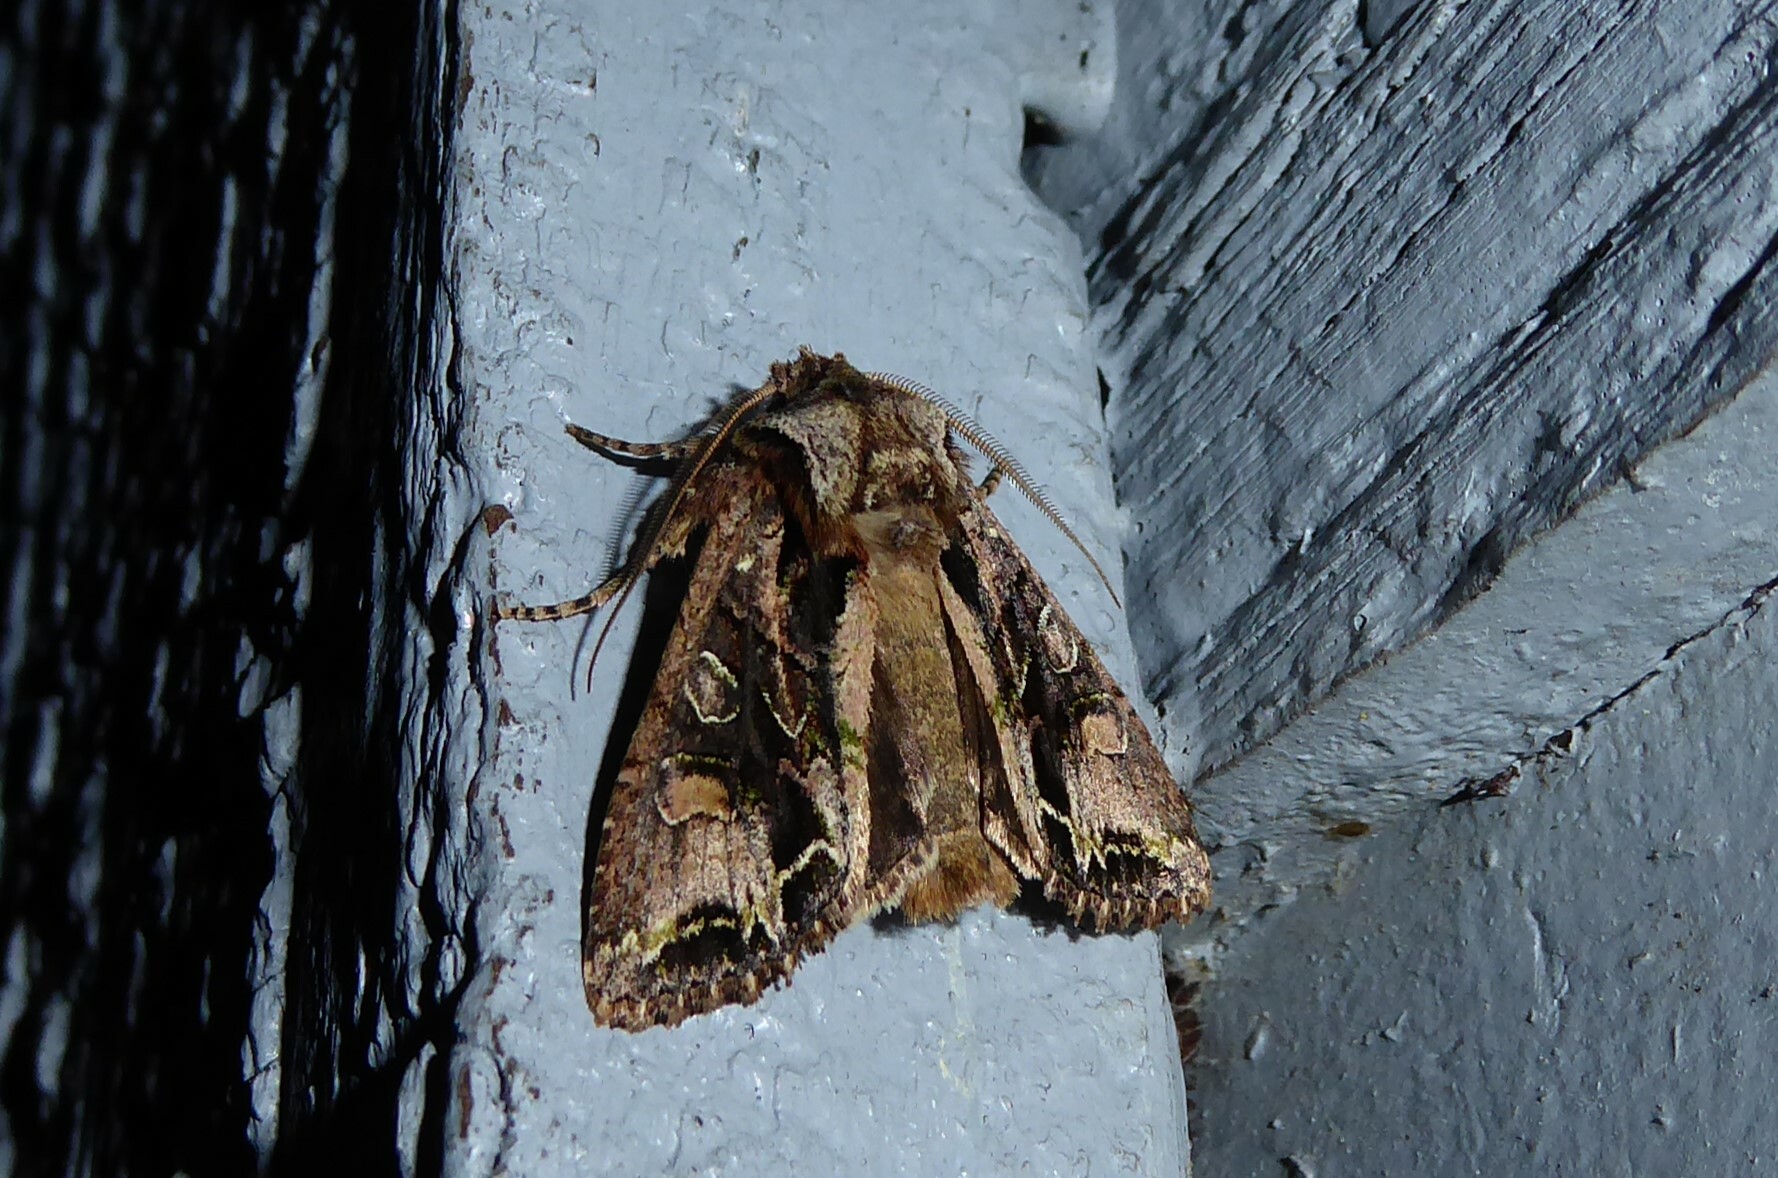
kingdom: Animalia
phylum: Arthropoda
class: Insecta
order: Lepidoptera
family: Noctuidae
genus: Ichneutica
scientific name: Ichneutica insignis
